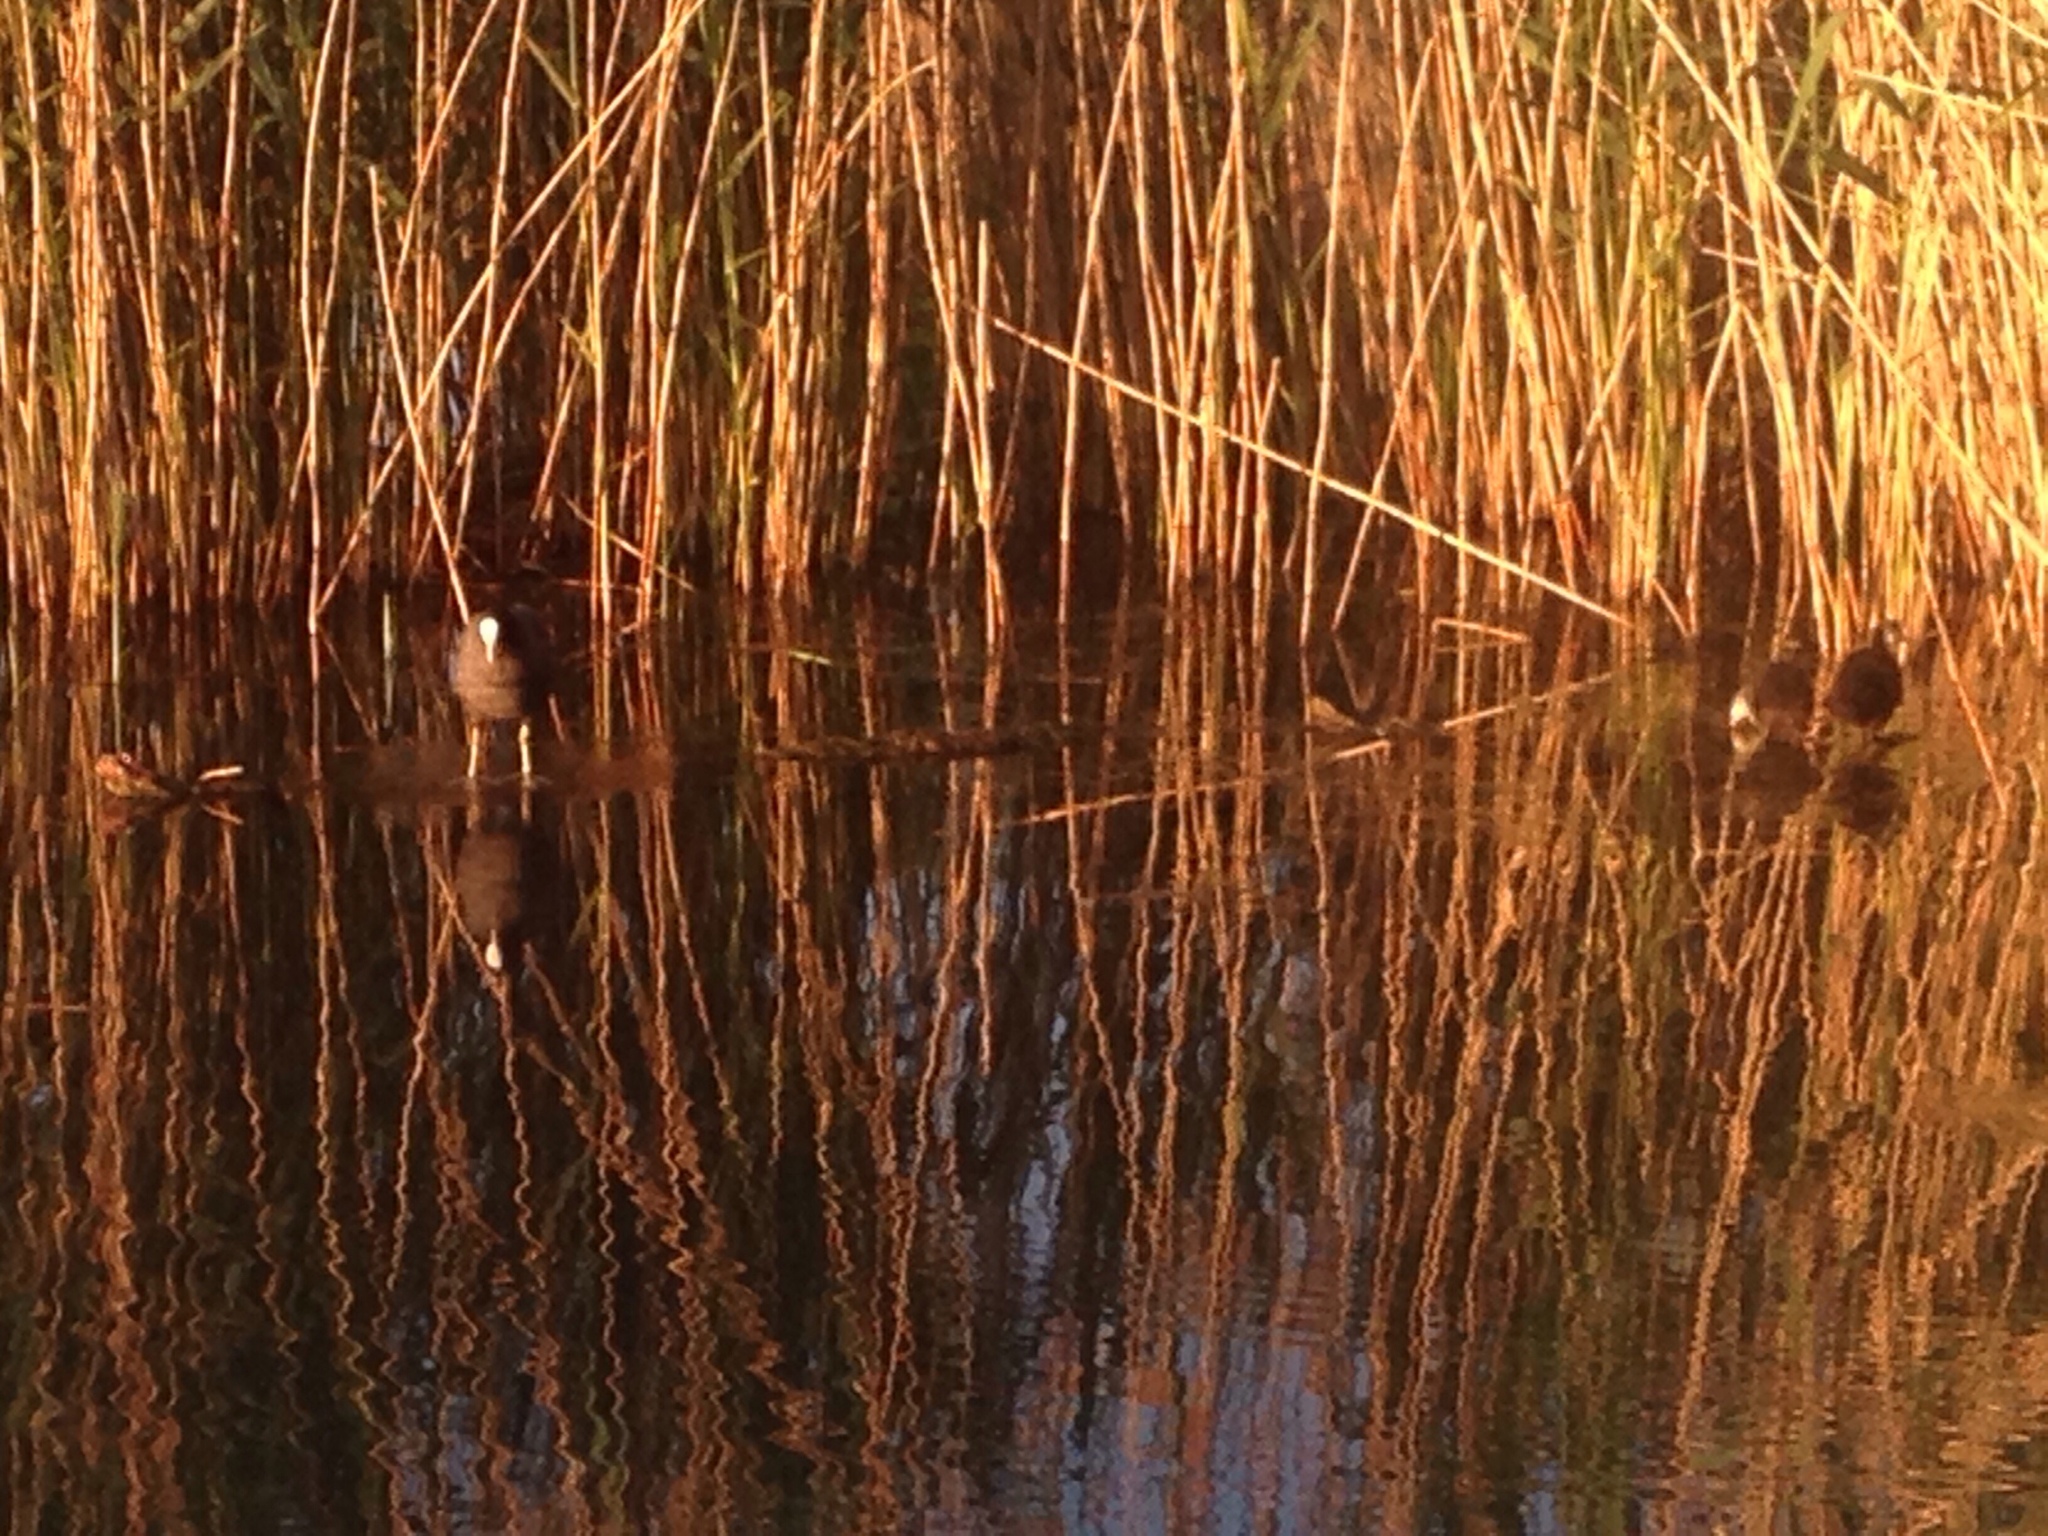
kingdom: Animalia
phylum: Chordata
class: Aves
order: Gruiformes
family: Rallidae
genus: Fulica
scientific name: Fulica atra
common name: Eurasian coot
